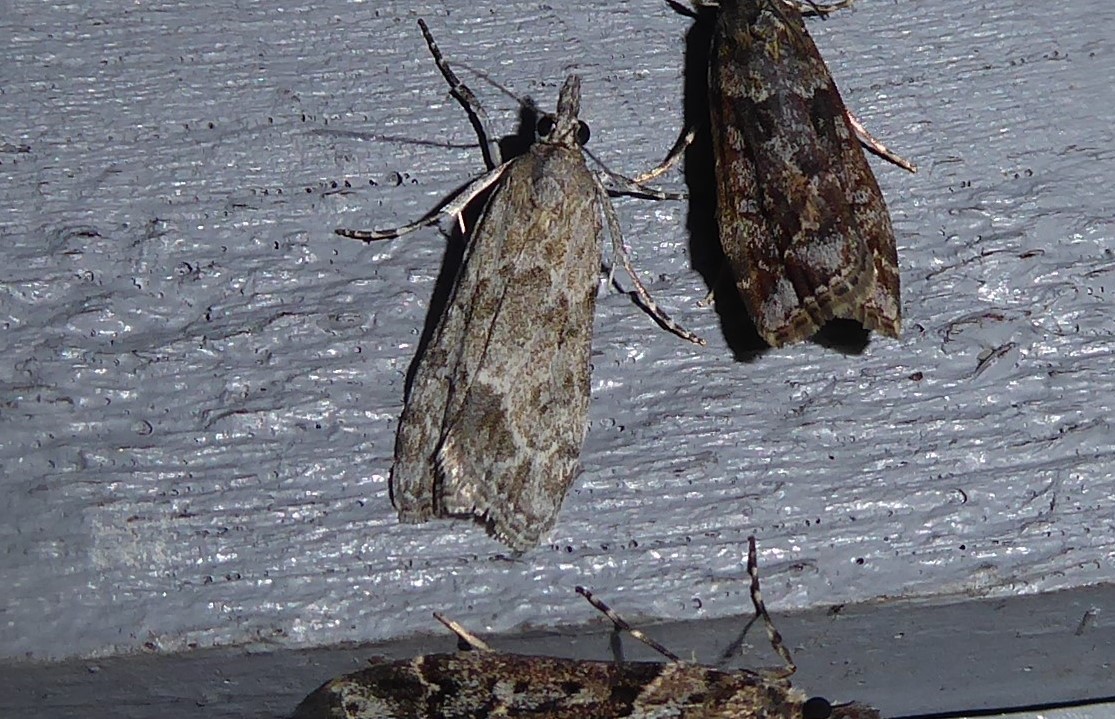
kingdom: Animalia
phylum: Arthropoda
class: Insecta
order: Lepidoptera
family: Crambidae
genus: Eudonia
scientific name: Eudonia rakaiensis
